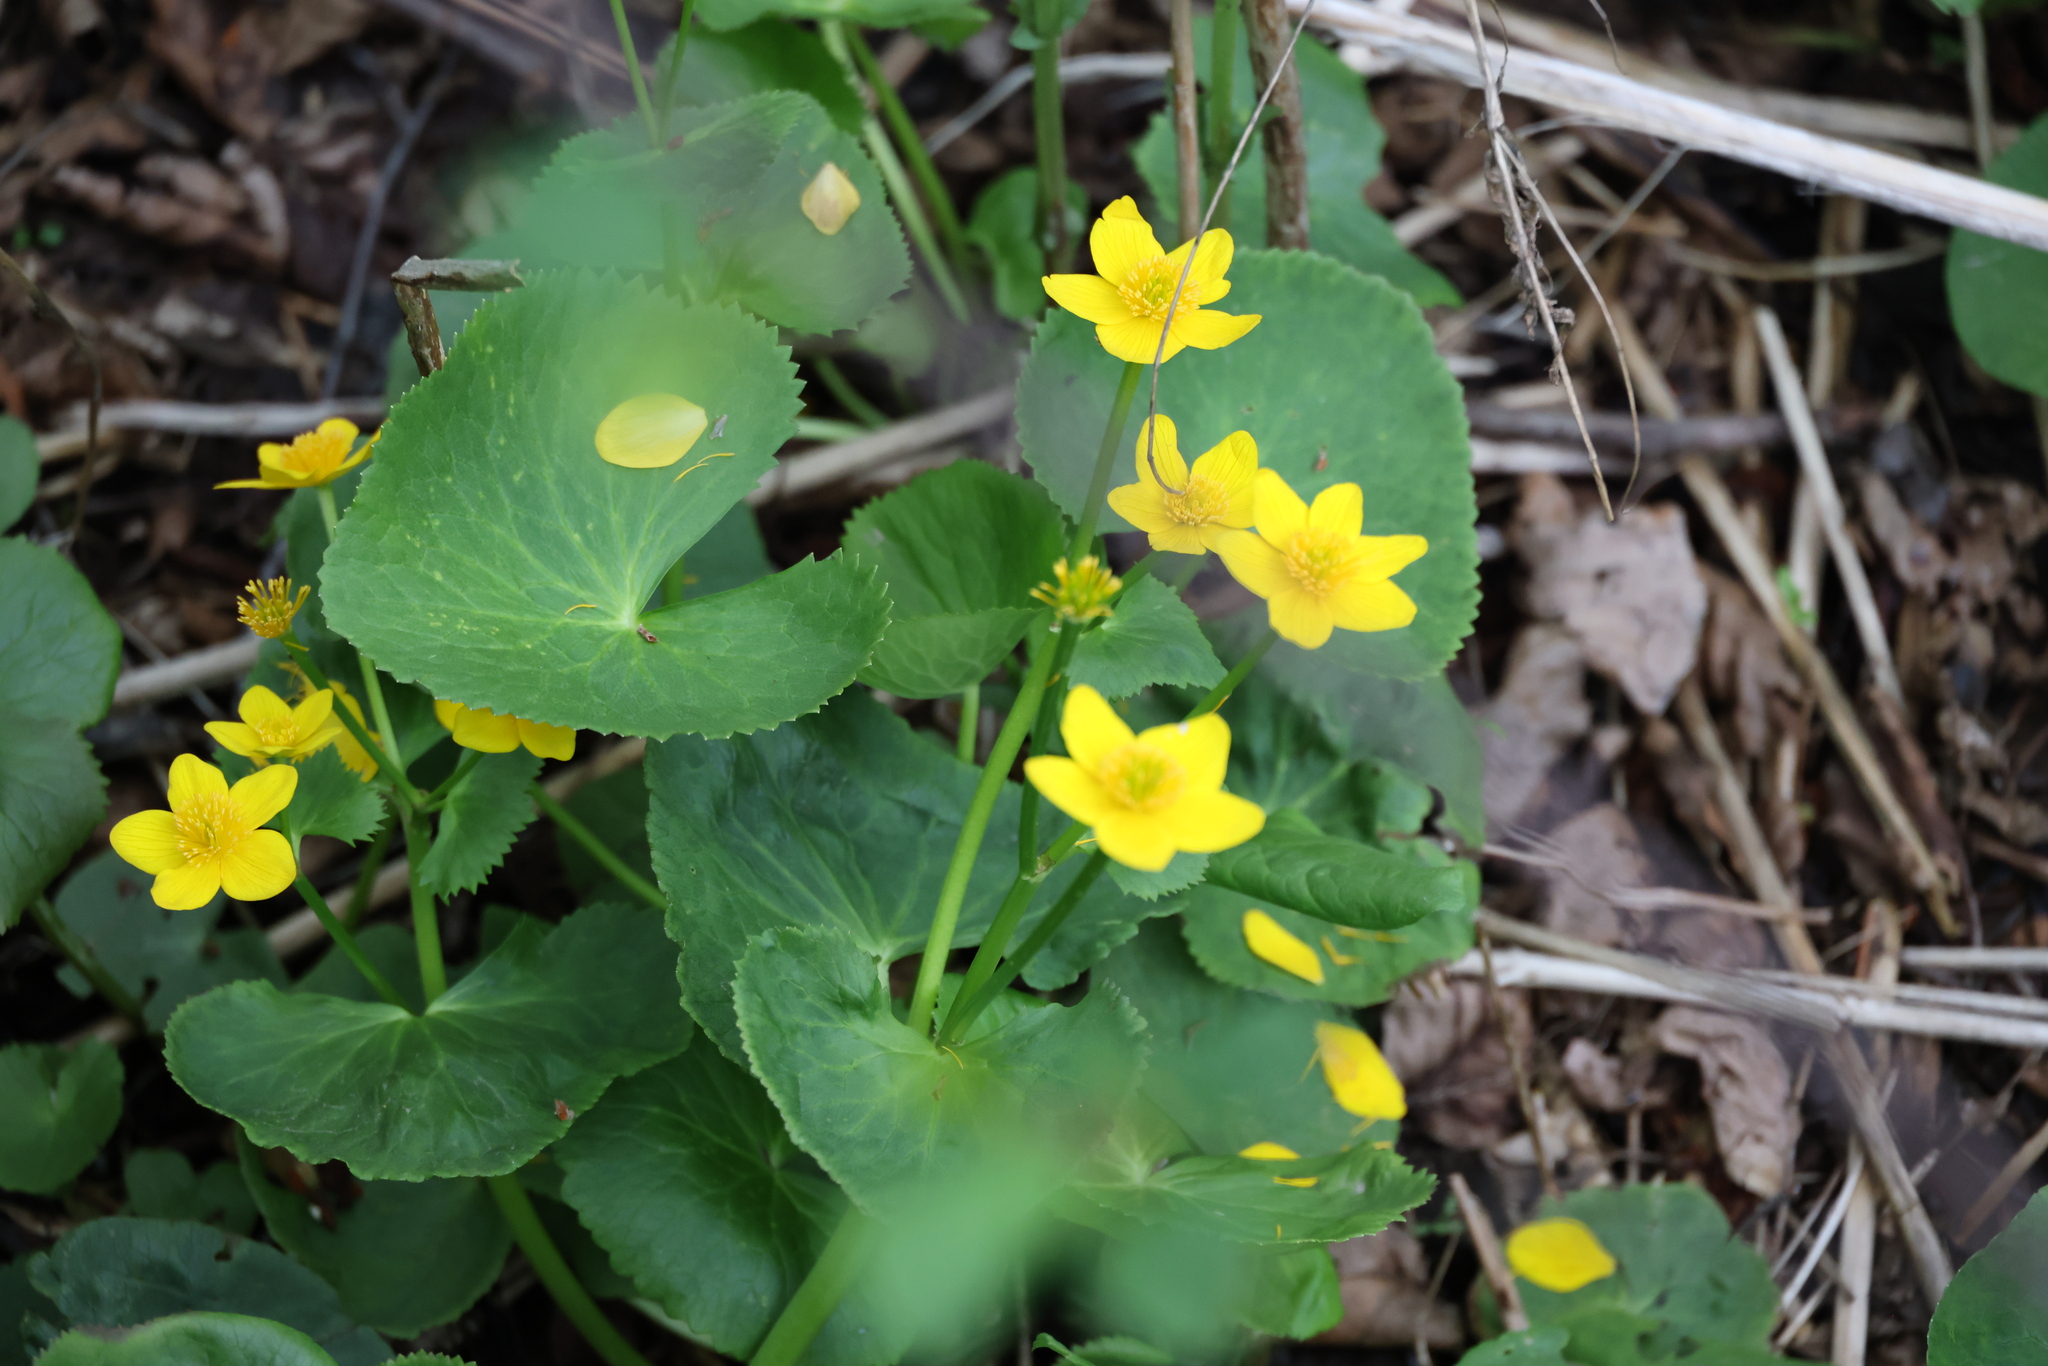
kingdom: Plantae
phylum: Tracheophyta
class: Magnoliopsida
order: Ranunculales
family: Ranunculaceae
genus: Caltha
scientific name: Caltha palustris
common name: Marsh marigold
